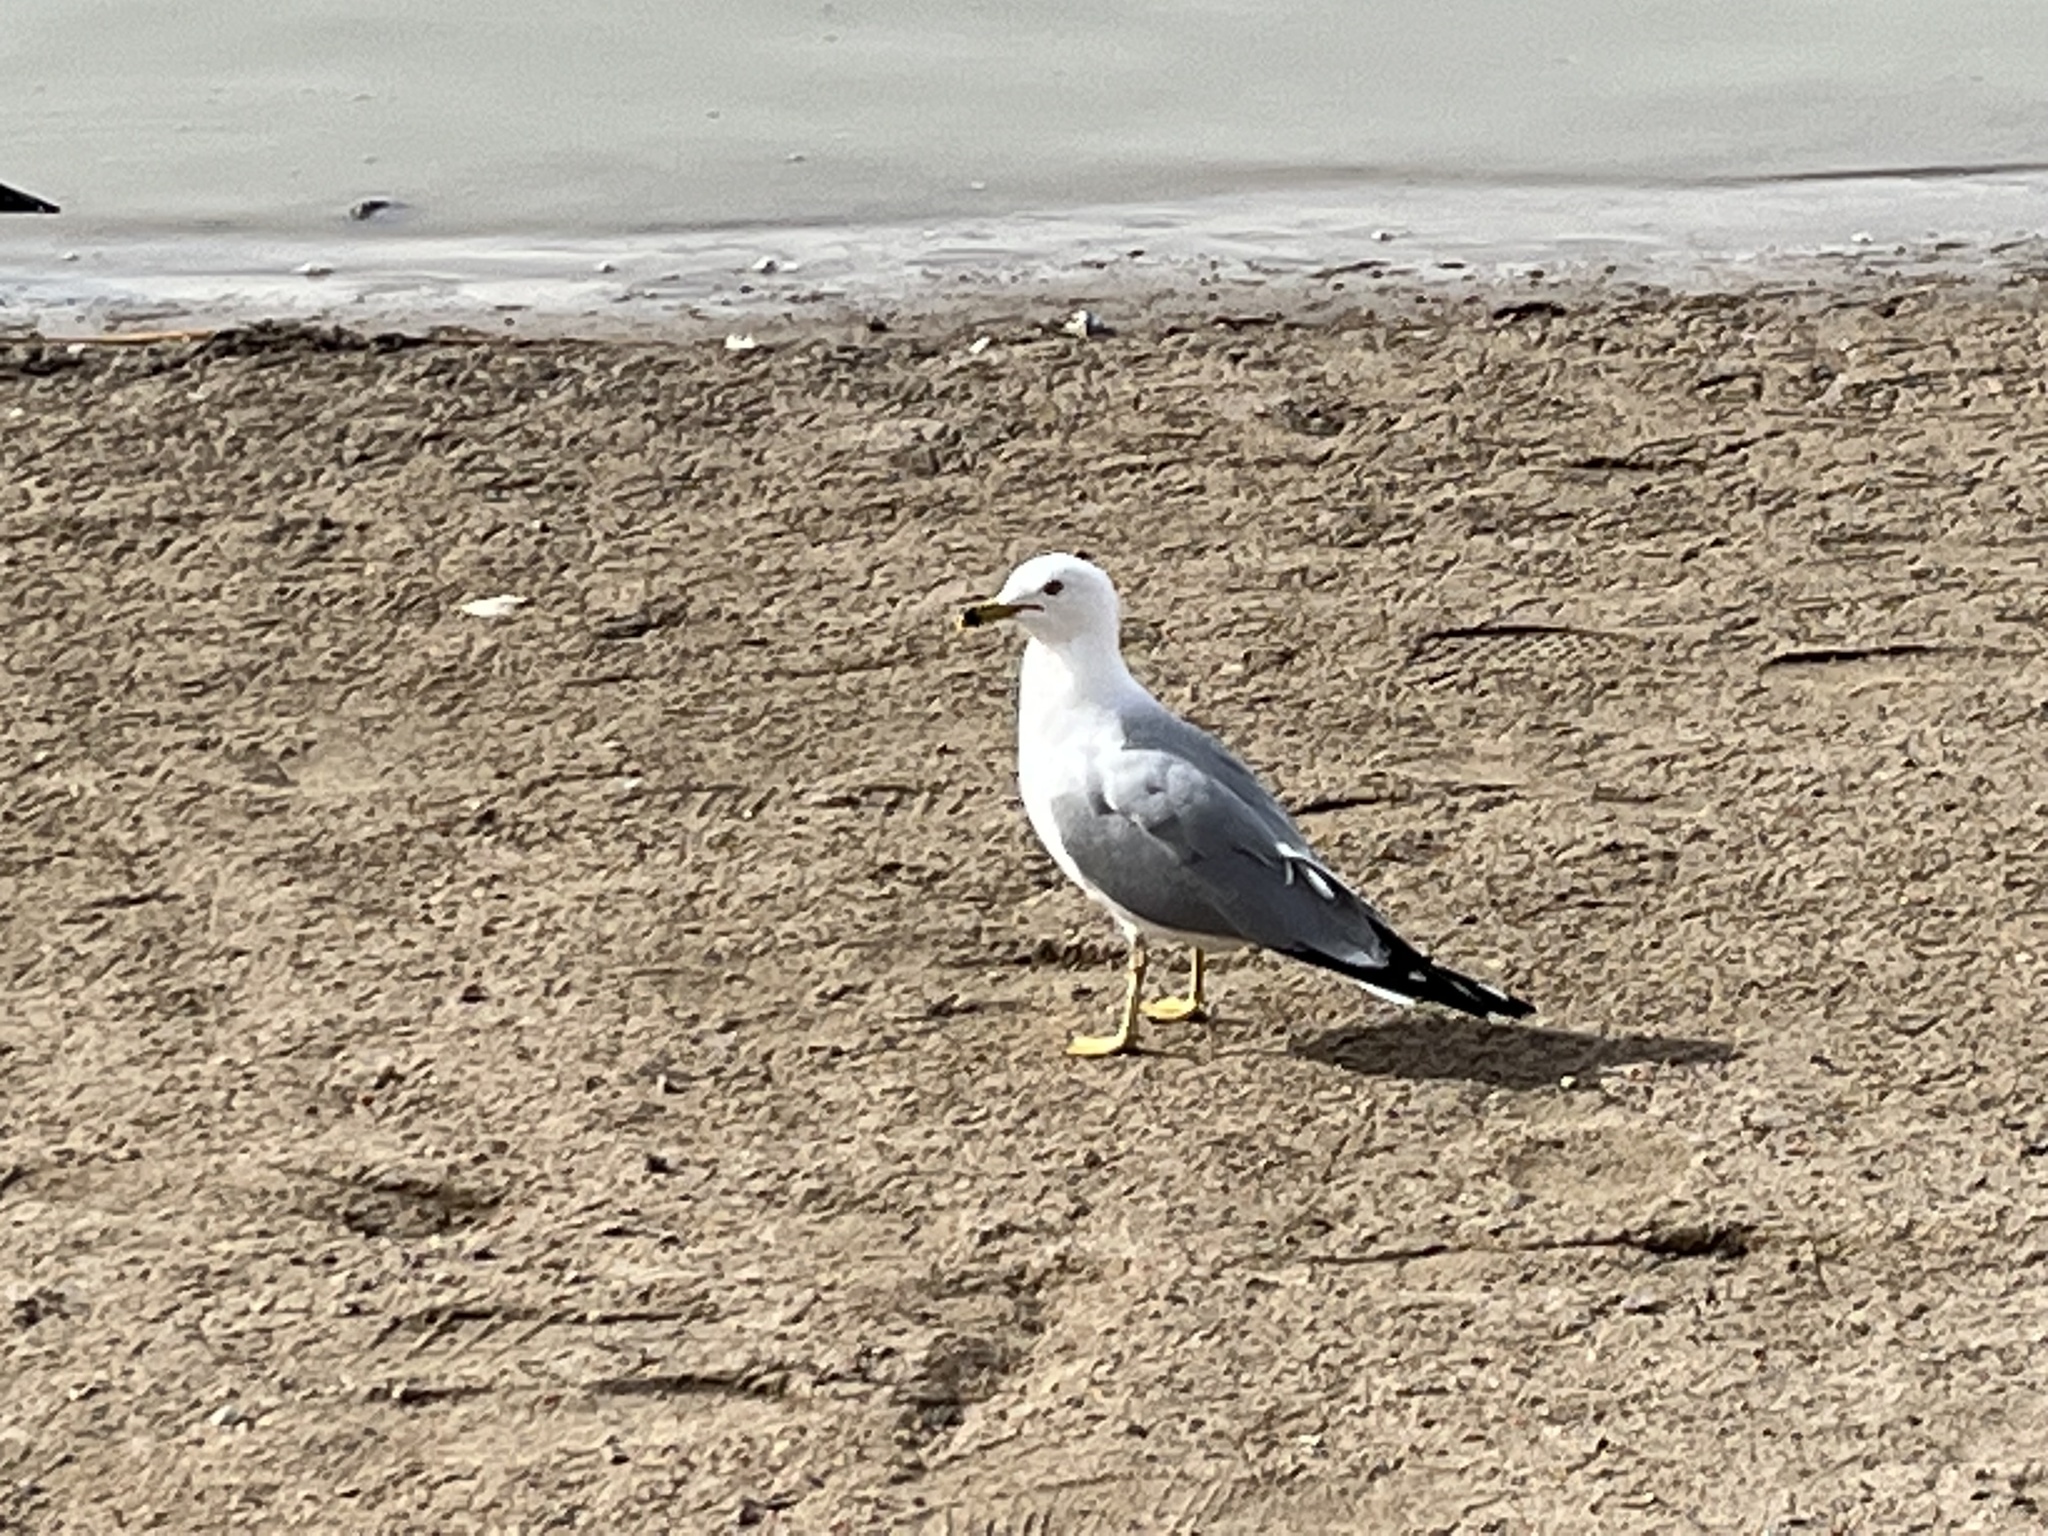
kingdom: Animalia
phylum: Chordata
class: Aves
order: Charadriiformes
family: Laridae
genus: Larus
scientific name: Larus delawarensis
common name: Ring-billed gull
